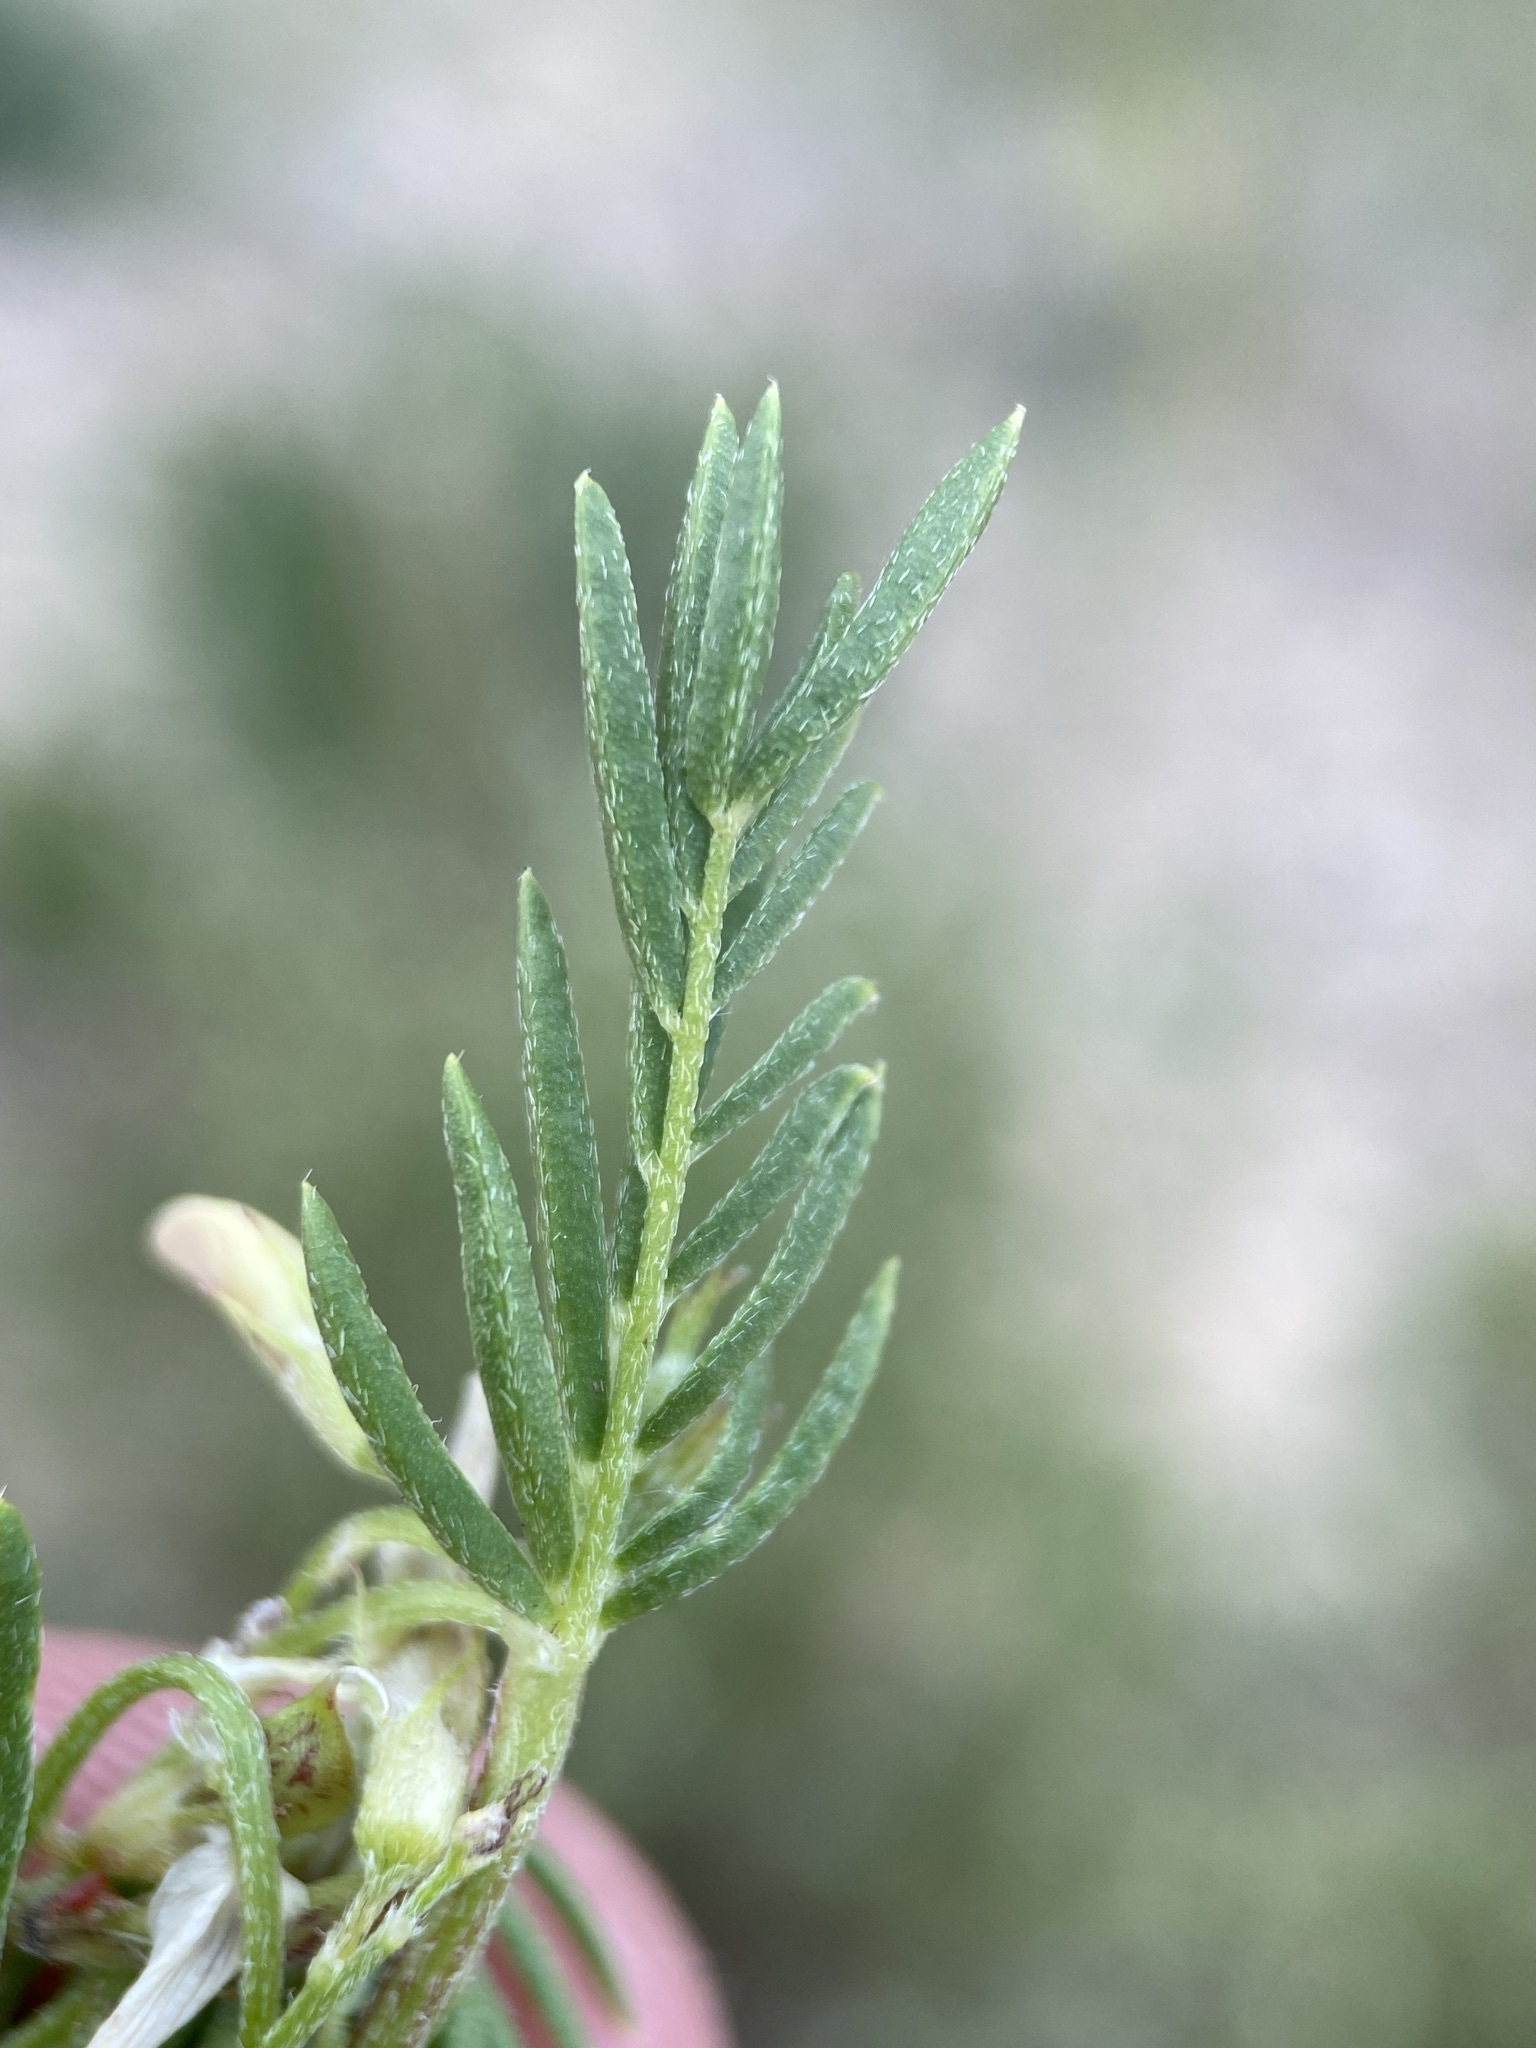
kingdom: Plantae
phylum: Tracheophyta
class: Magnoliopsida
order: Fabales
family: Fabaceae
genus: Astragalus
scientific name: Astragalus tenellus
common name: Pulse milk-vetch
